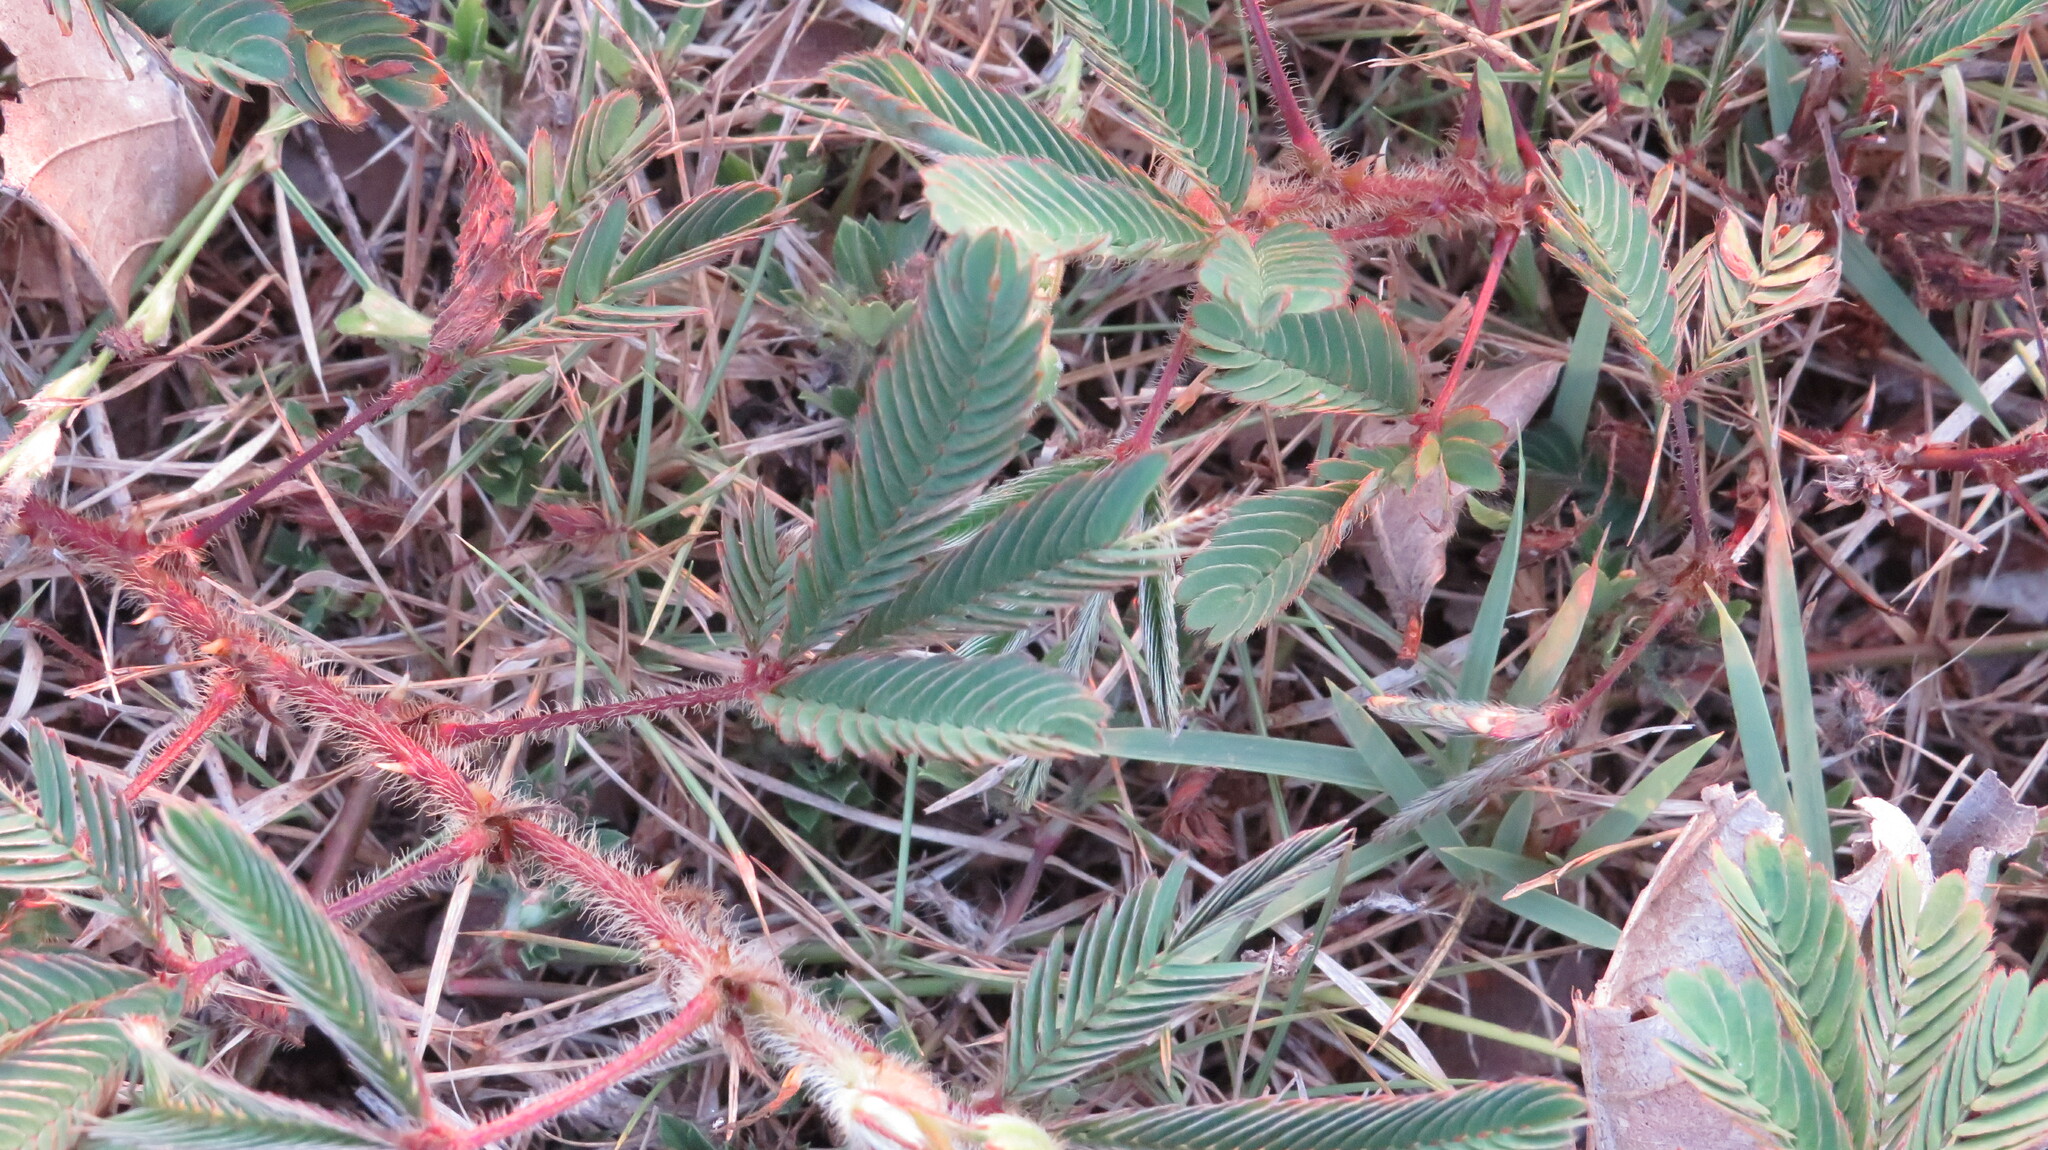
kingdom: Plantae
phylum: Tracheophyta
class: Magnoliopsida
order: Fabales
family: Fabaceae
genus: Mimosa
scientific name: Mimosa pudica
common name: Sensitive plant
